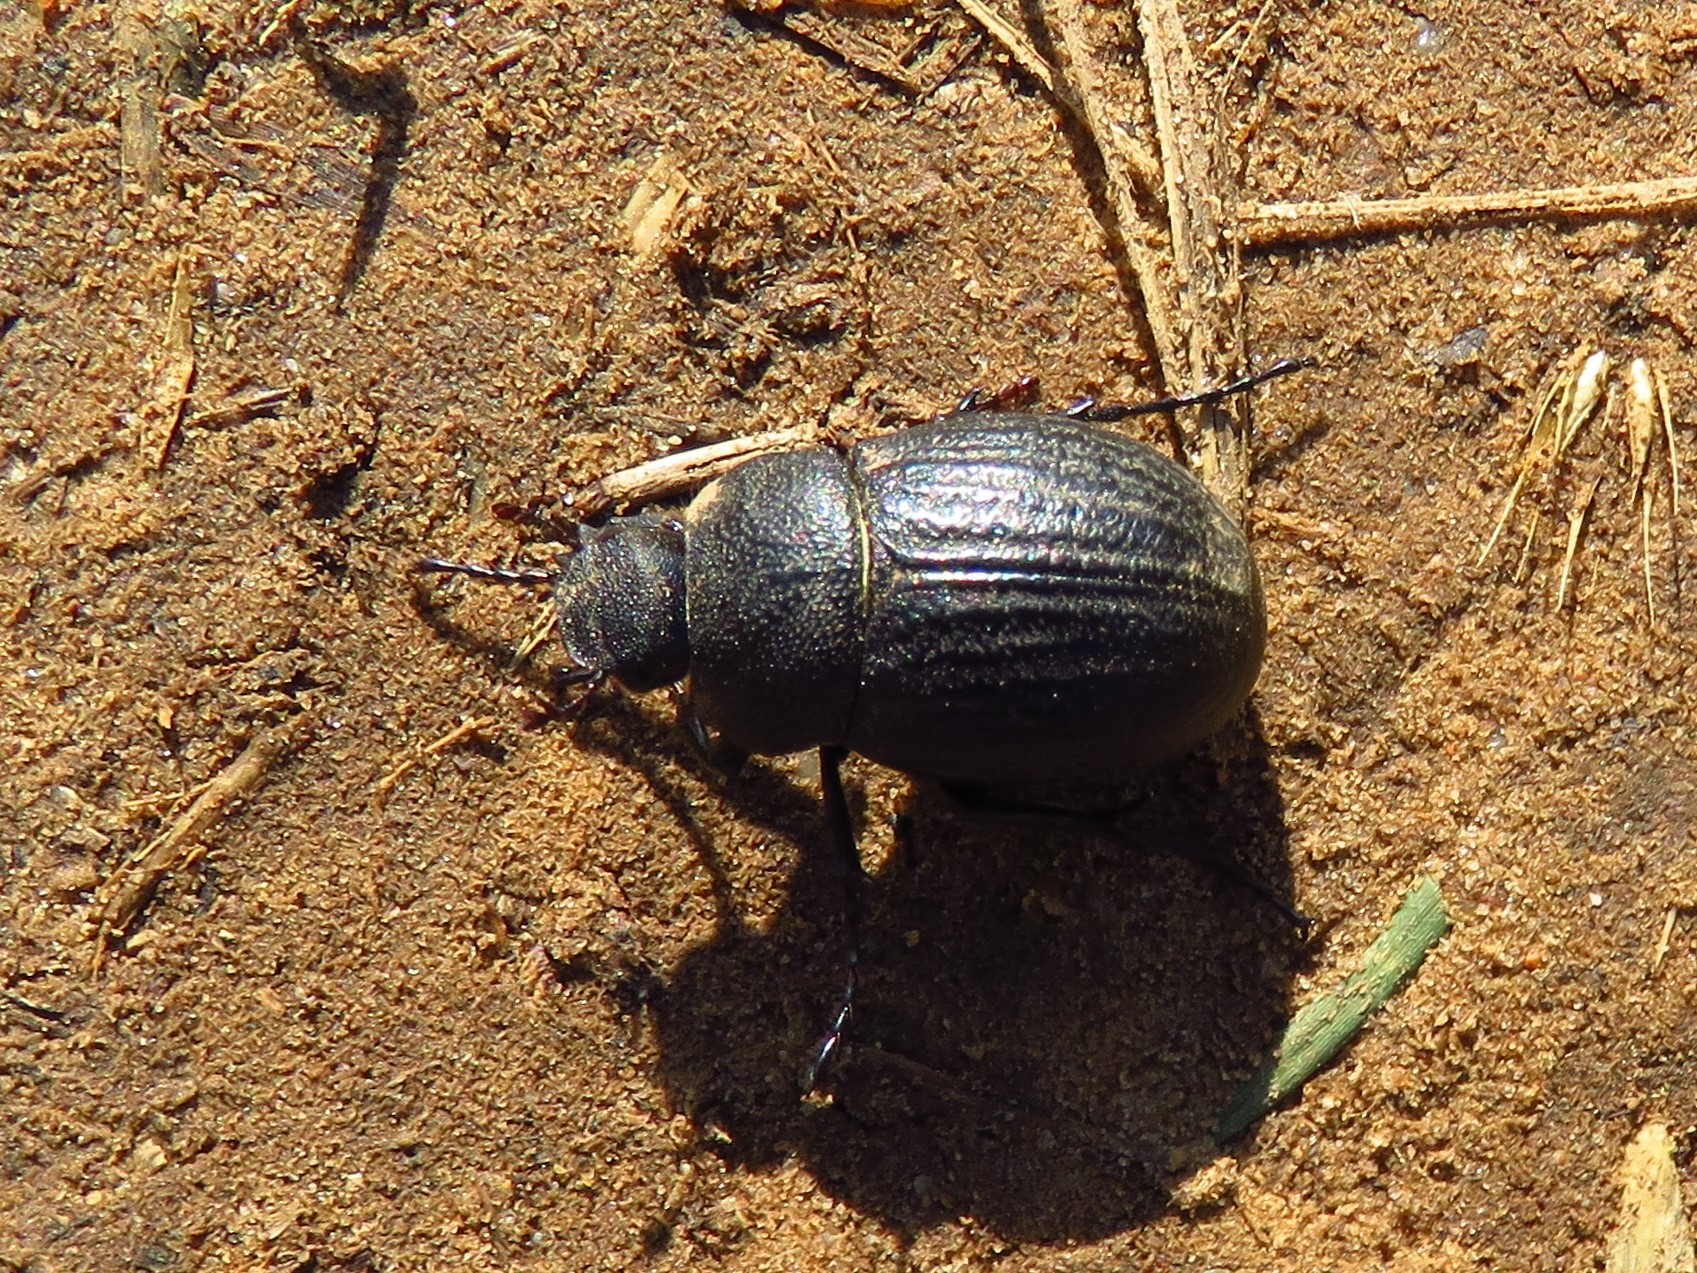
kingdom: Animalia
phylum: Arthropoda
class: Insecta
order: Coleoptera
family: Scarabaeidae
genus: Phyllophaga
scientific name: Phyllophaga cribrosa
